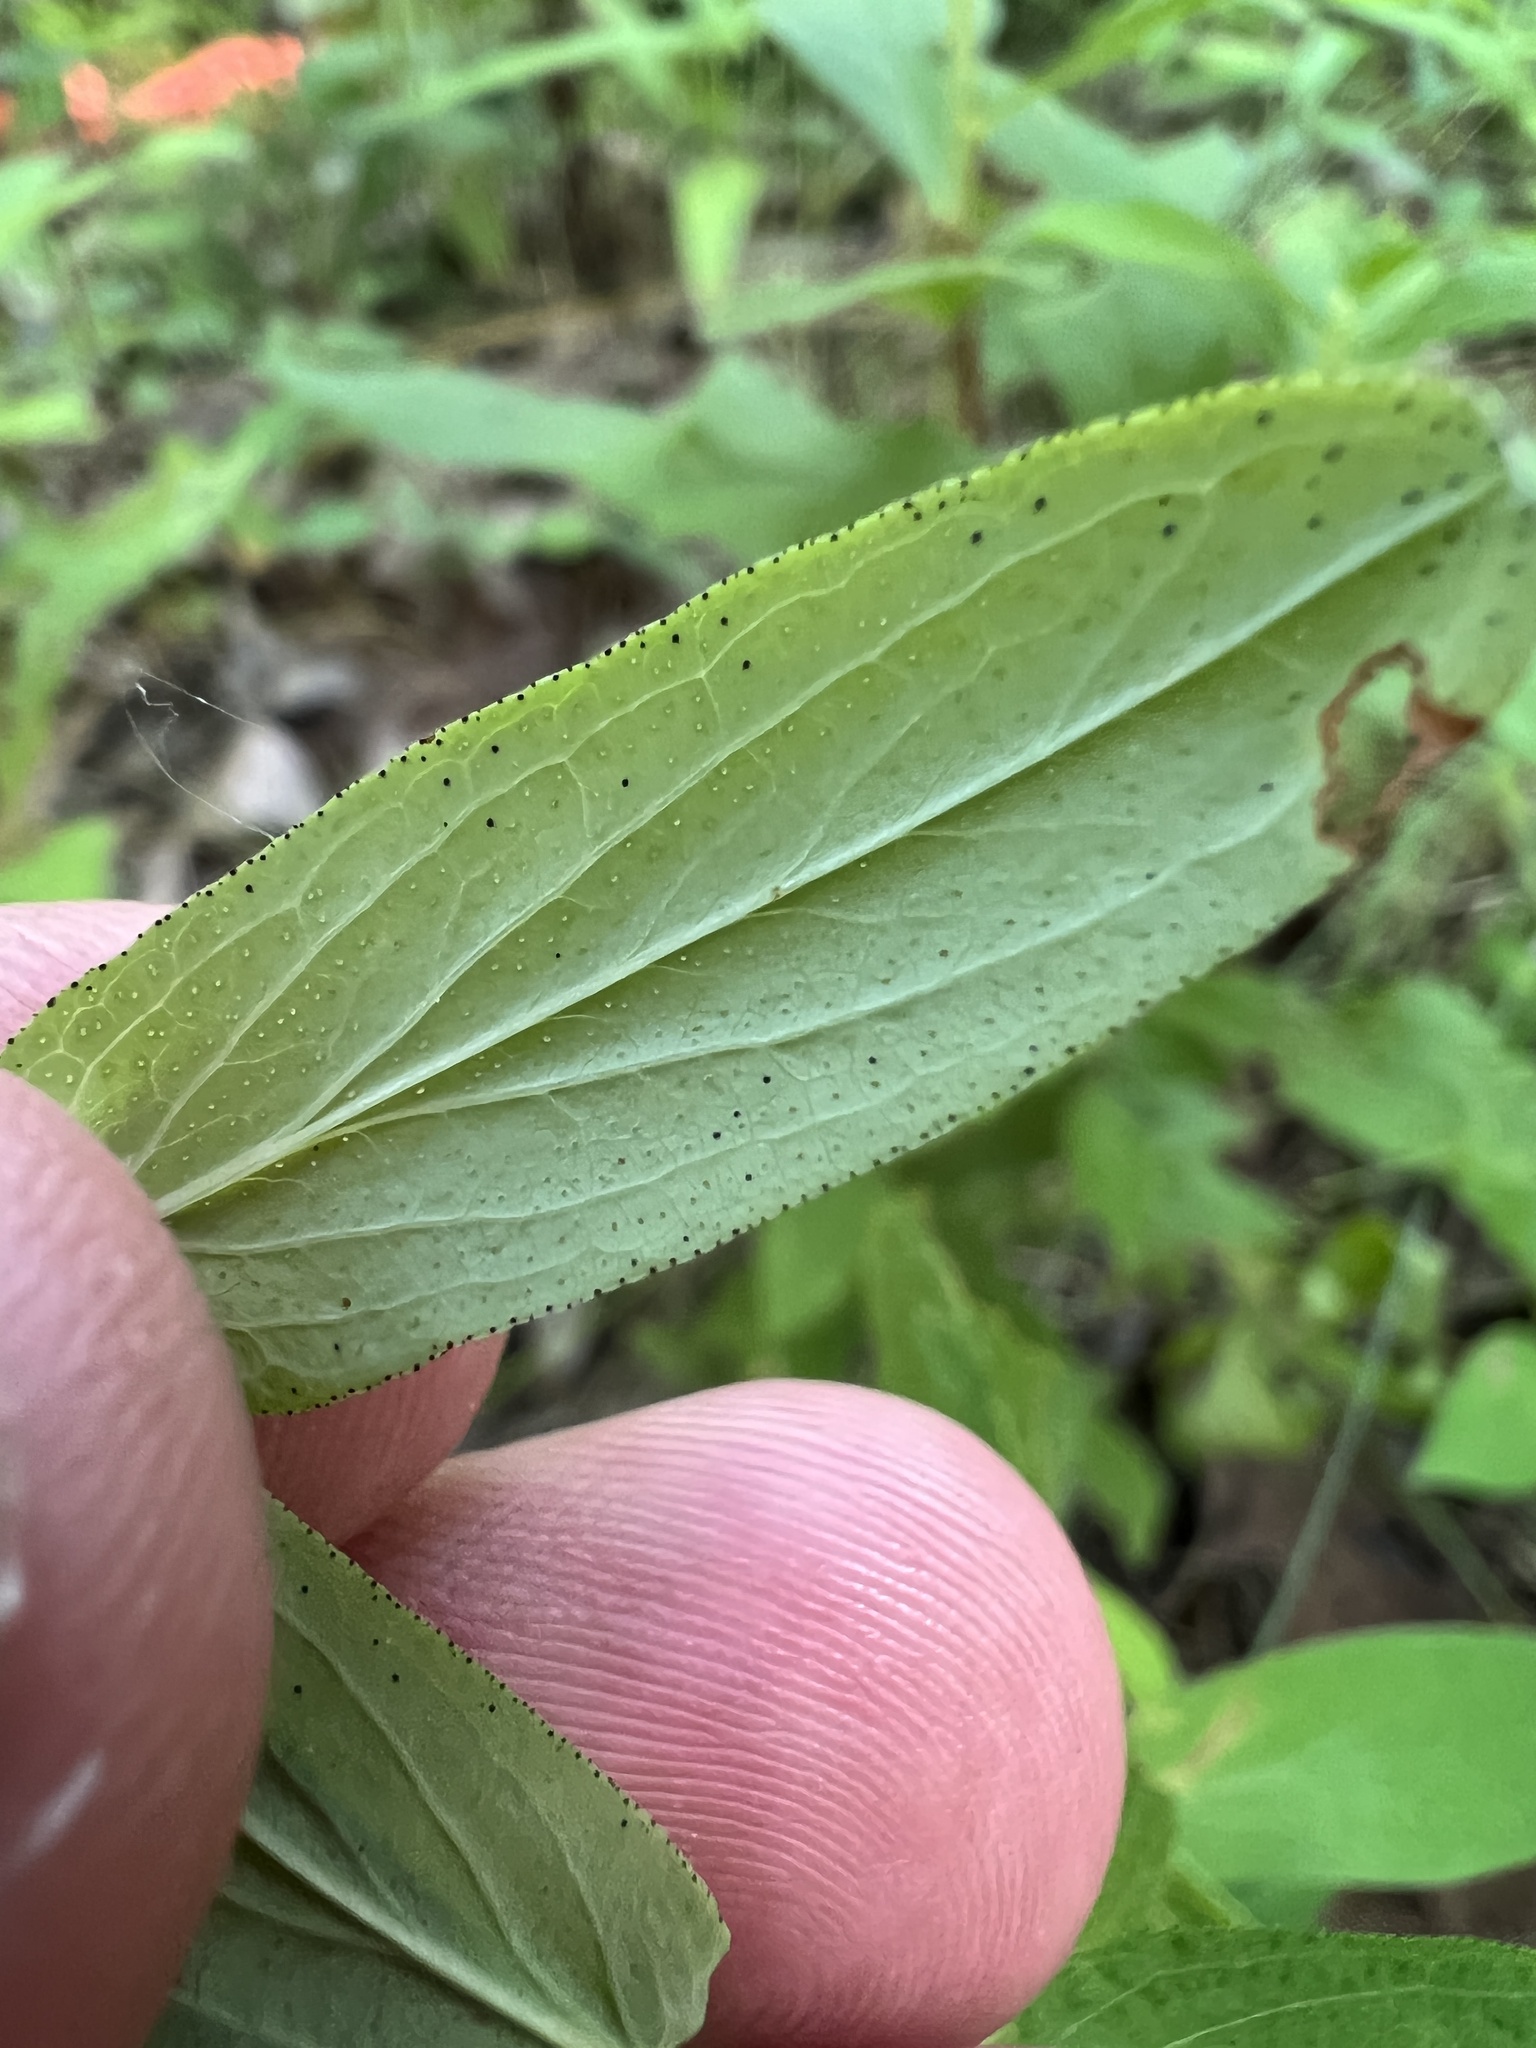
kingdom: Plantae
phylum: Tracheophyta
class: Magnoliopsida
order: Malpighiales
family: Hypericaceae
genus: Hypericum
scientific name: Hypericum punctatum
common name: Spotted st. john's-wort
